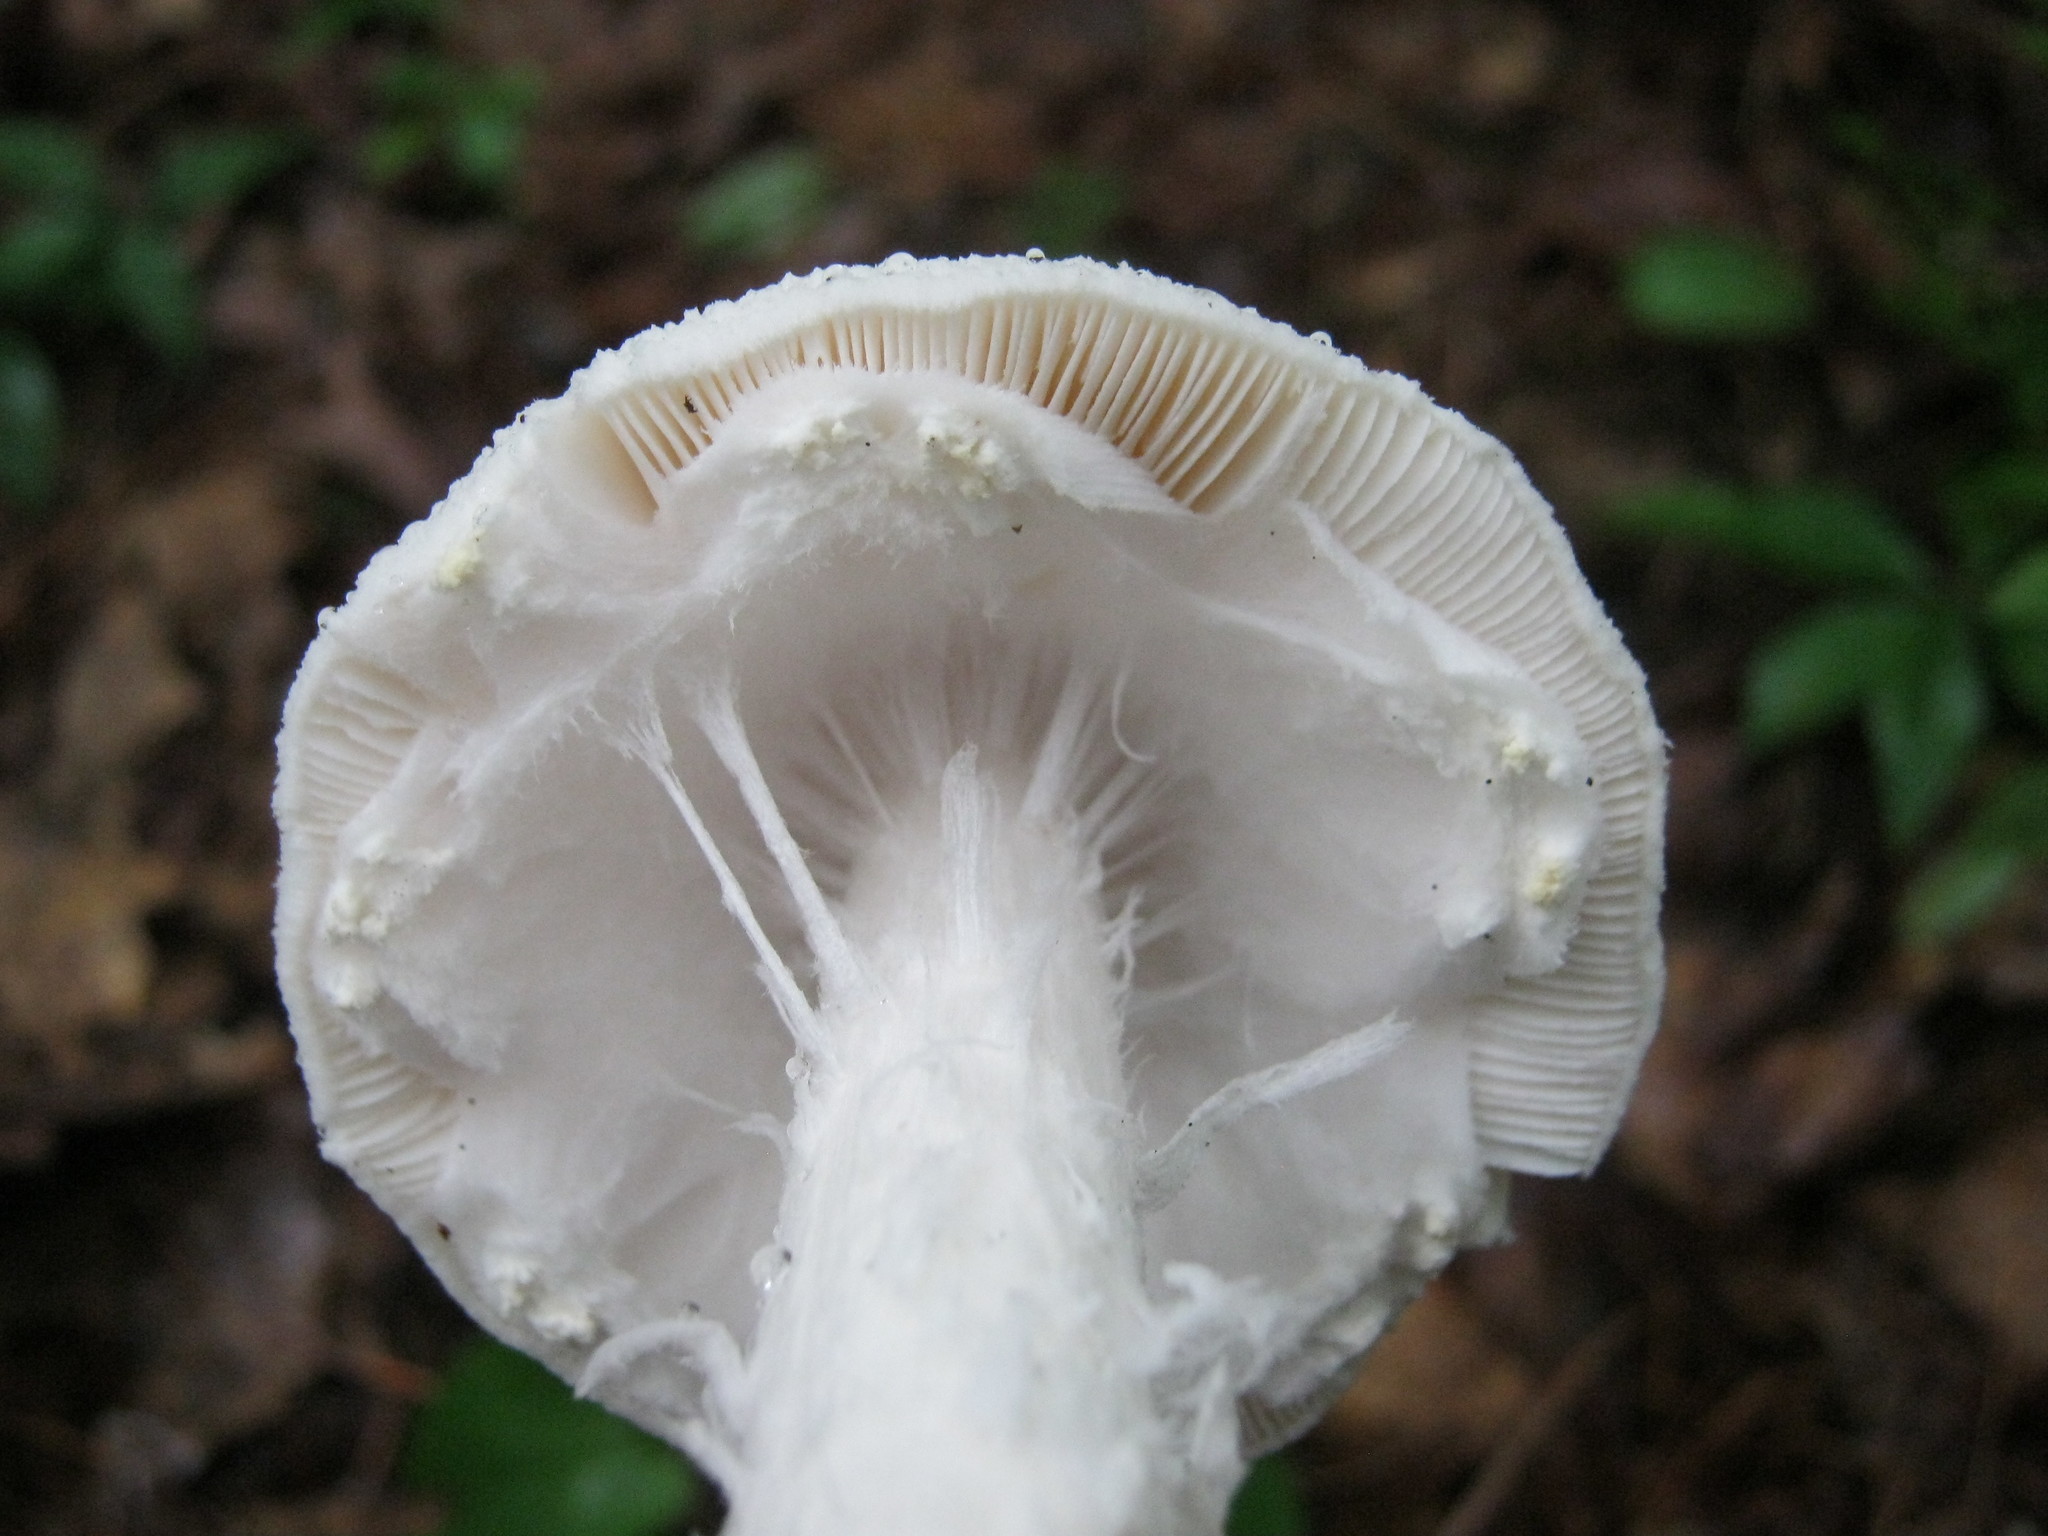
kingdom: Fungi
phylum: Basidiomycota
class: Agaricomycetes
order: Agaricales
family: Amanitaceae
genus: Amanita
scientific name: Amanita abrupta
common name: American abrupt-bulbed lepidella
